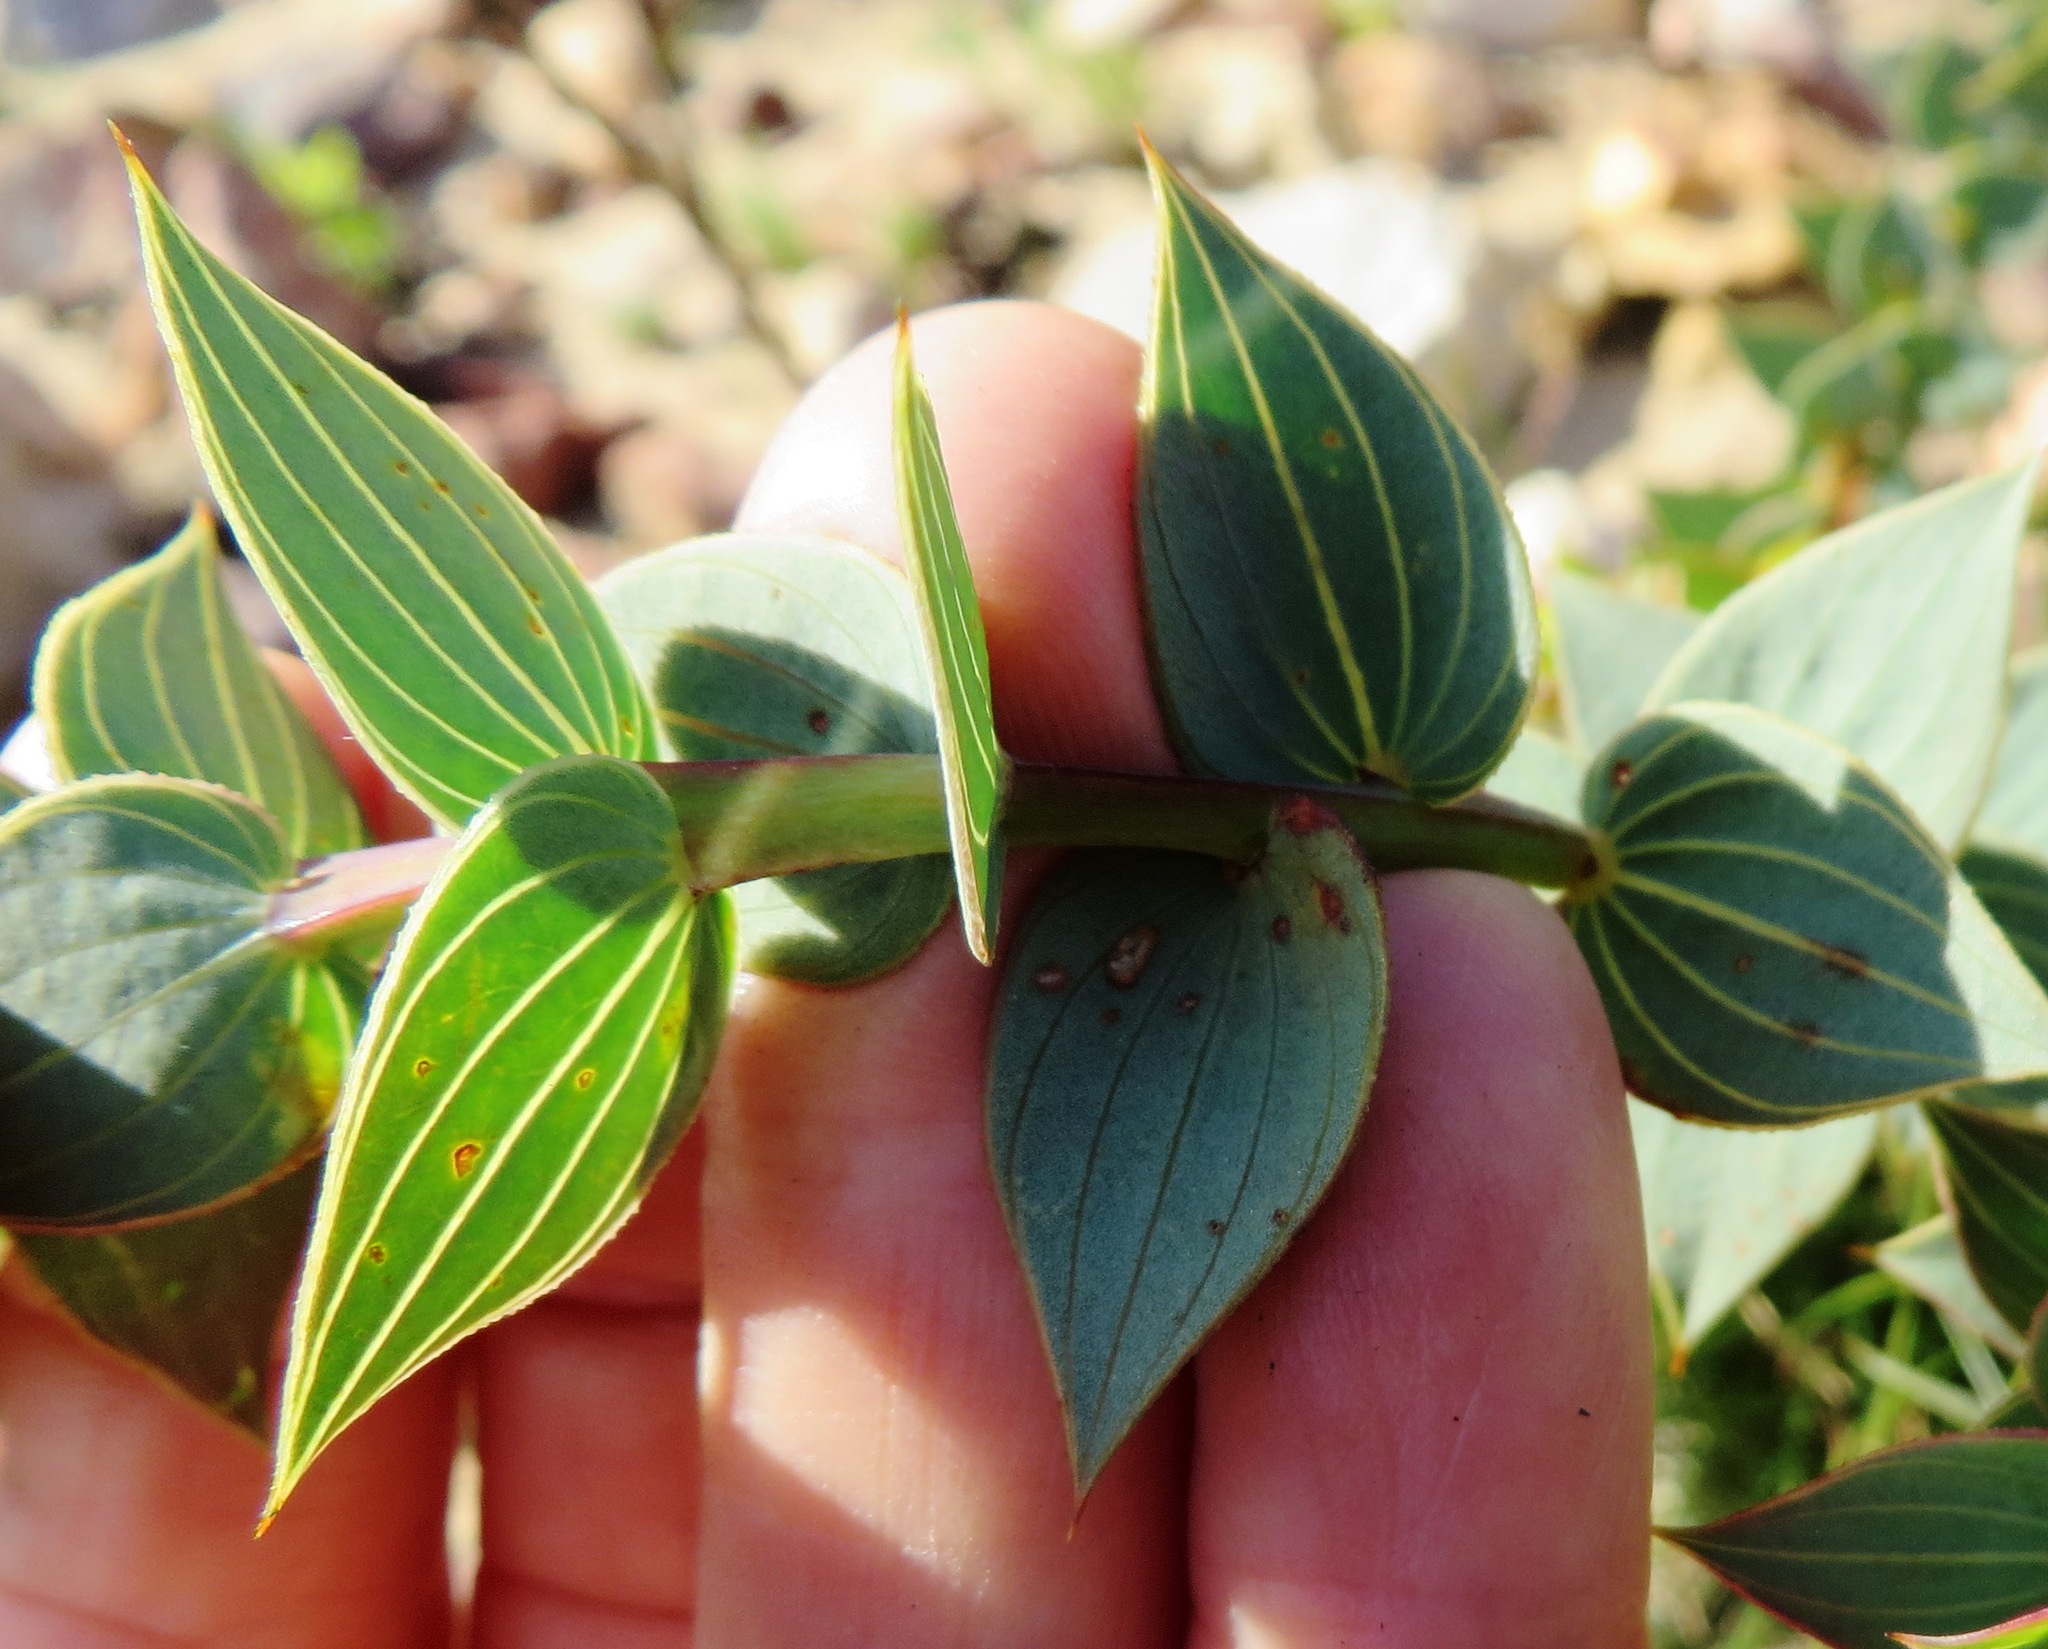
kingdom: Plantae
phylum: Tracheophyta
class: Magnoliopsida
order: Fabales
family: Fabaceae
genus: Aspalathus
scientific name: Aspalathus crenata
